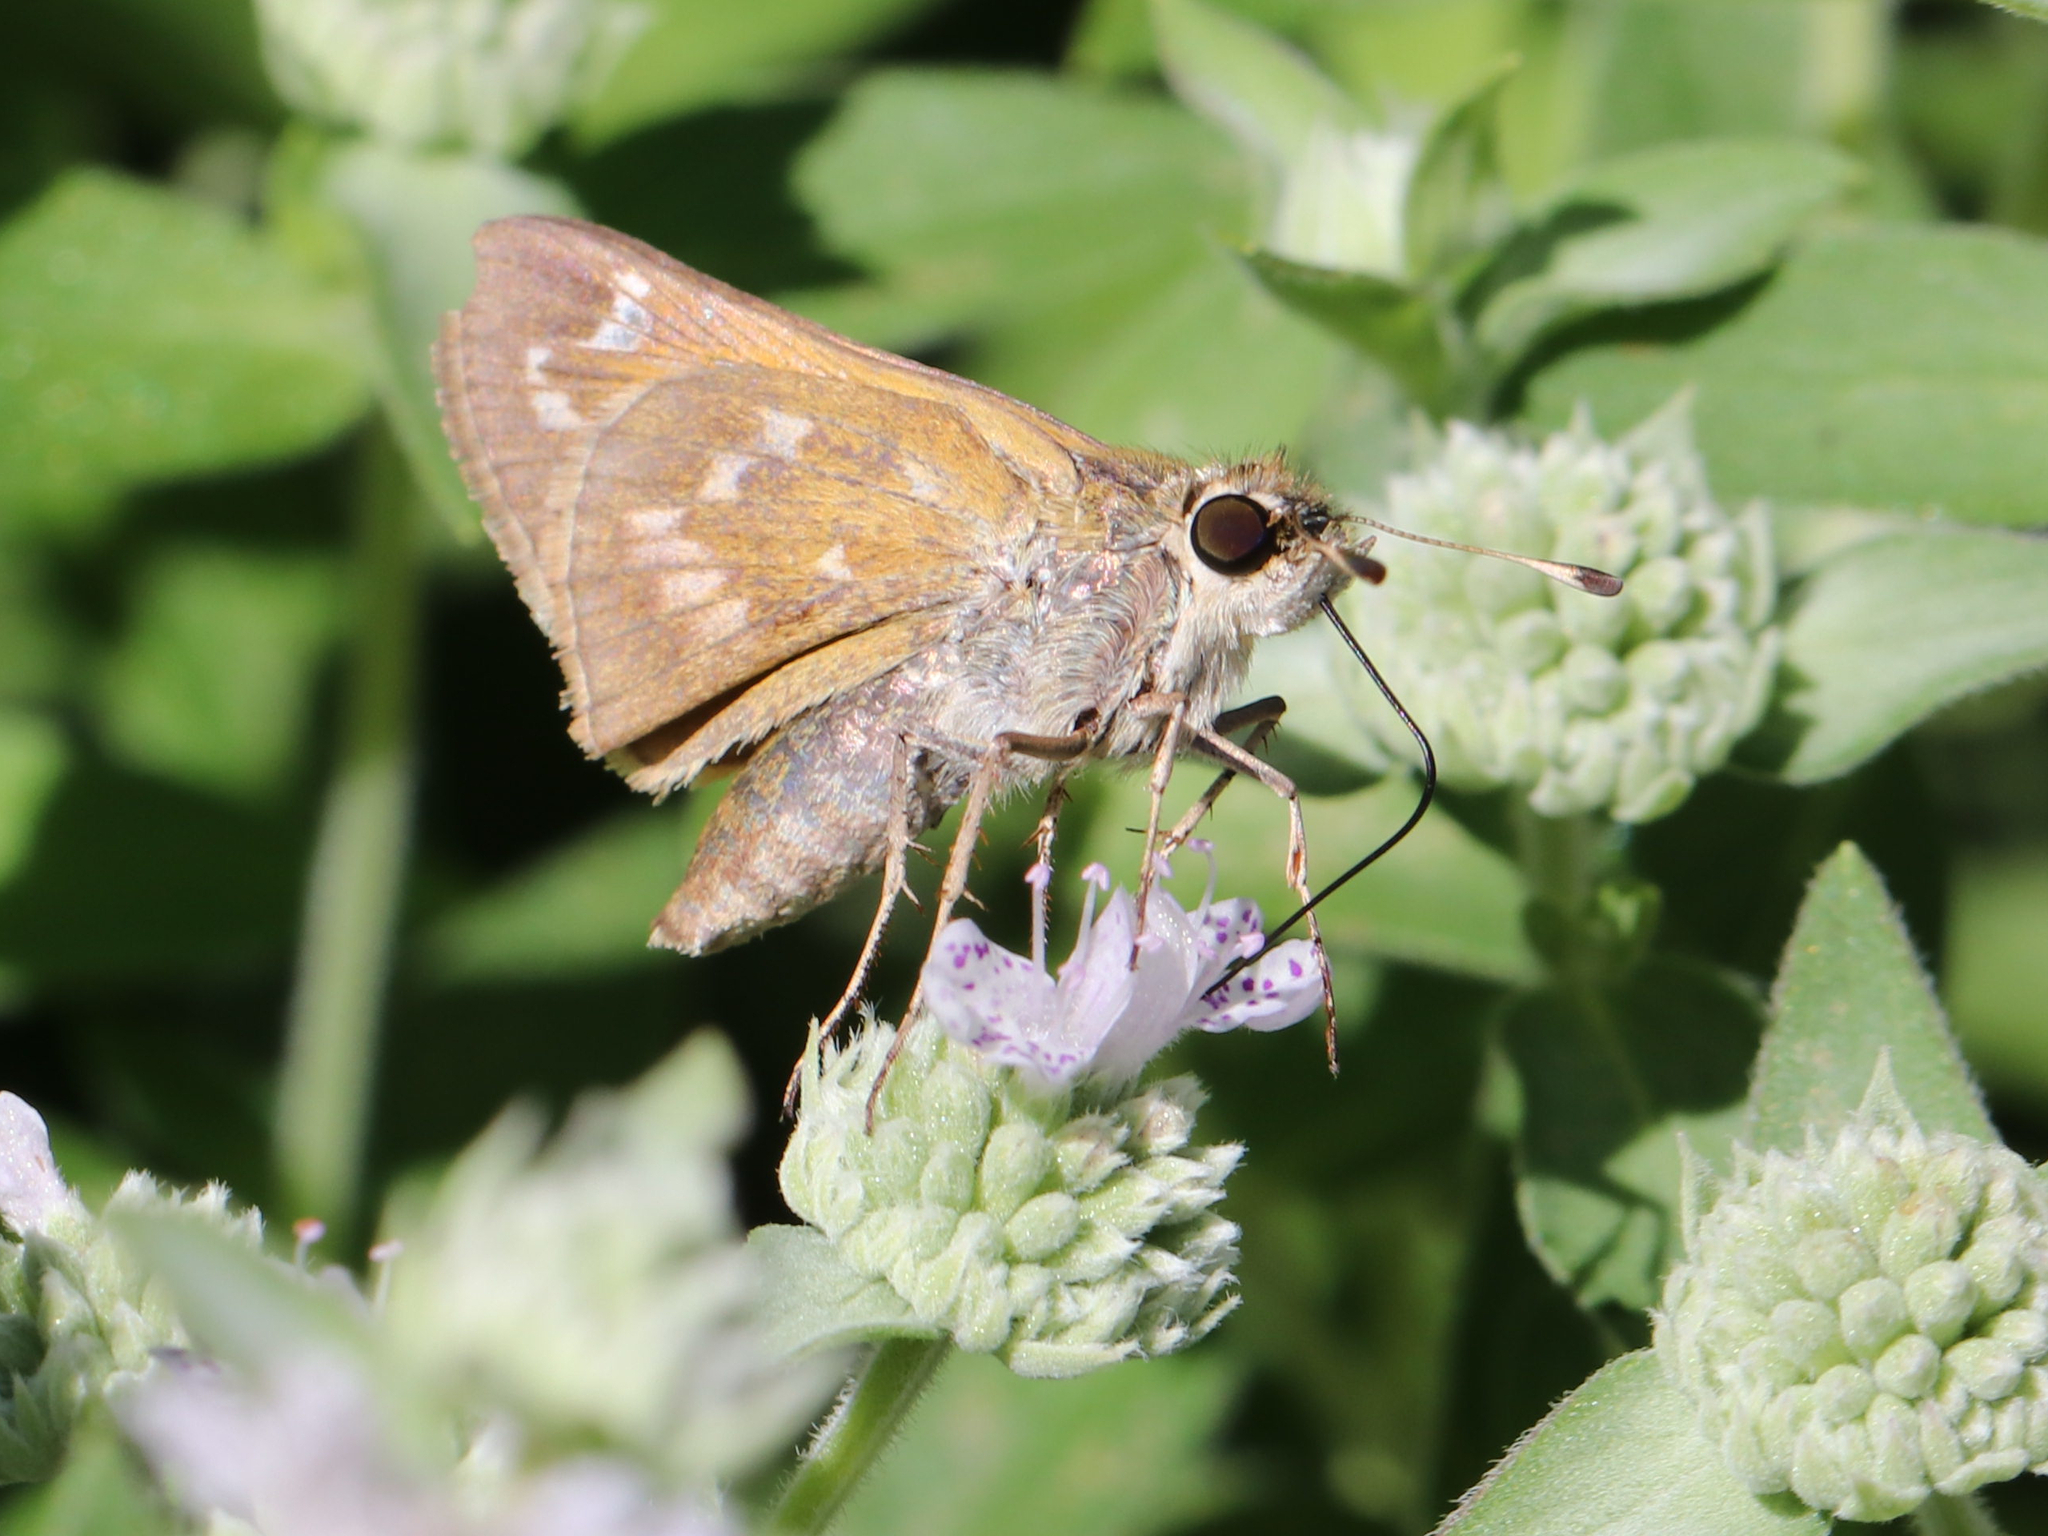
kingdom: Animalia
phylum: Arthropoda
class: Insecta
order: Lepidoptera
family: Hesperiidae
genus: Atalopedes
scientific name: Atalopedes
